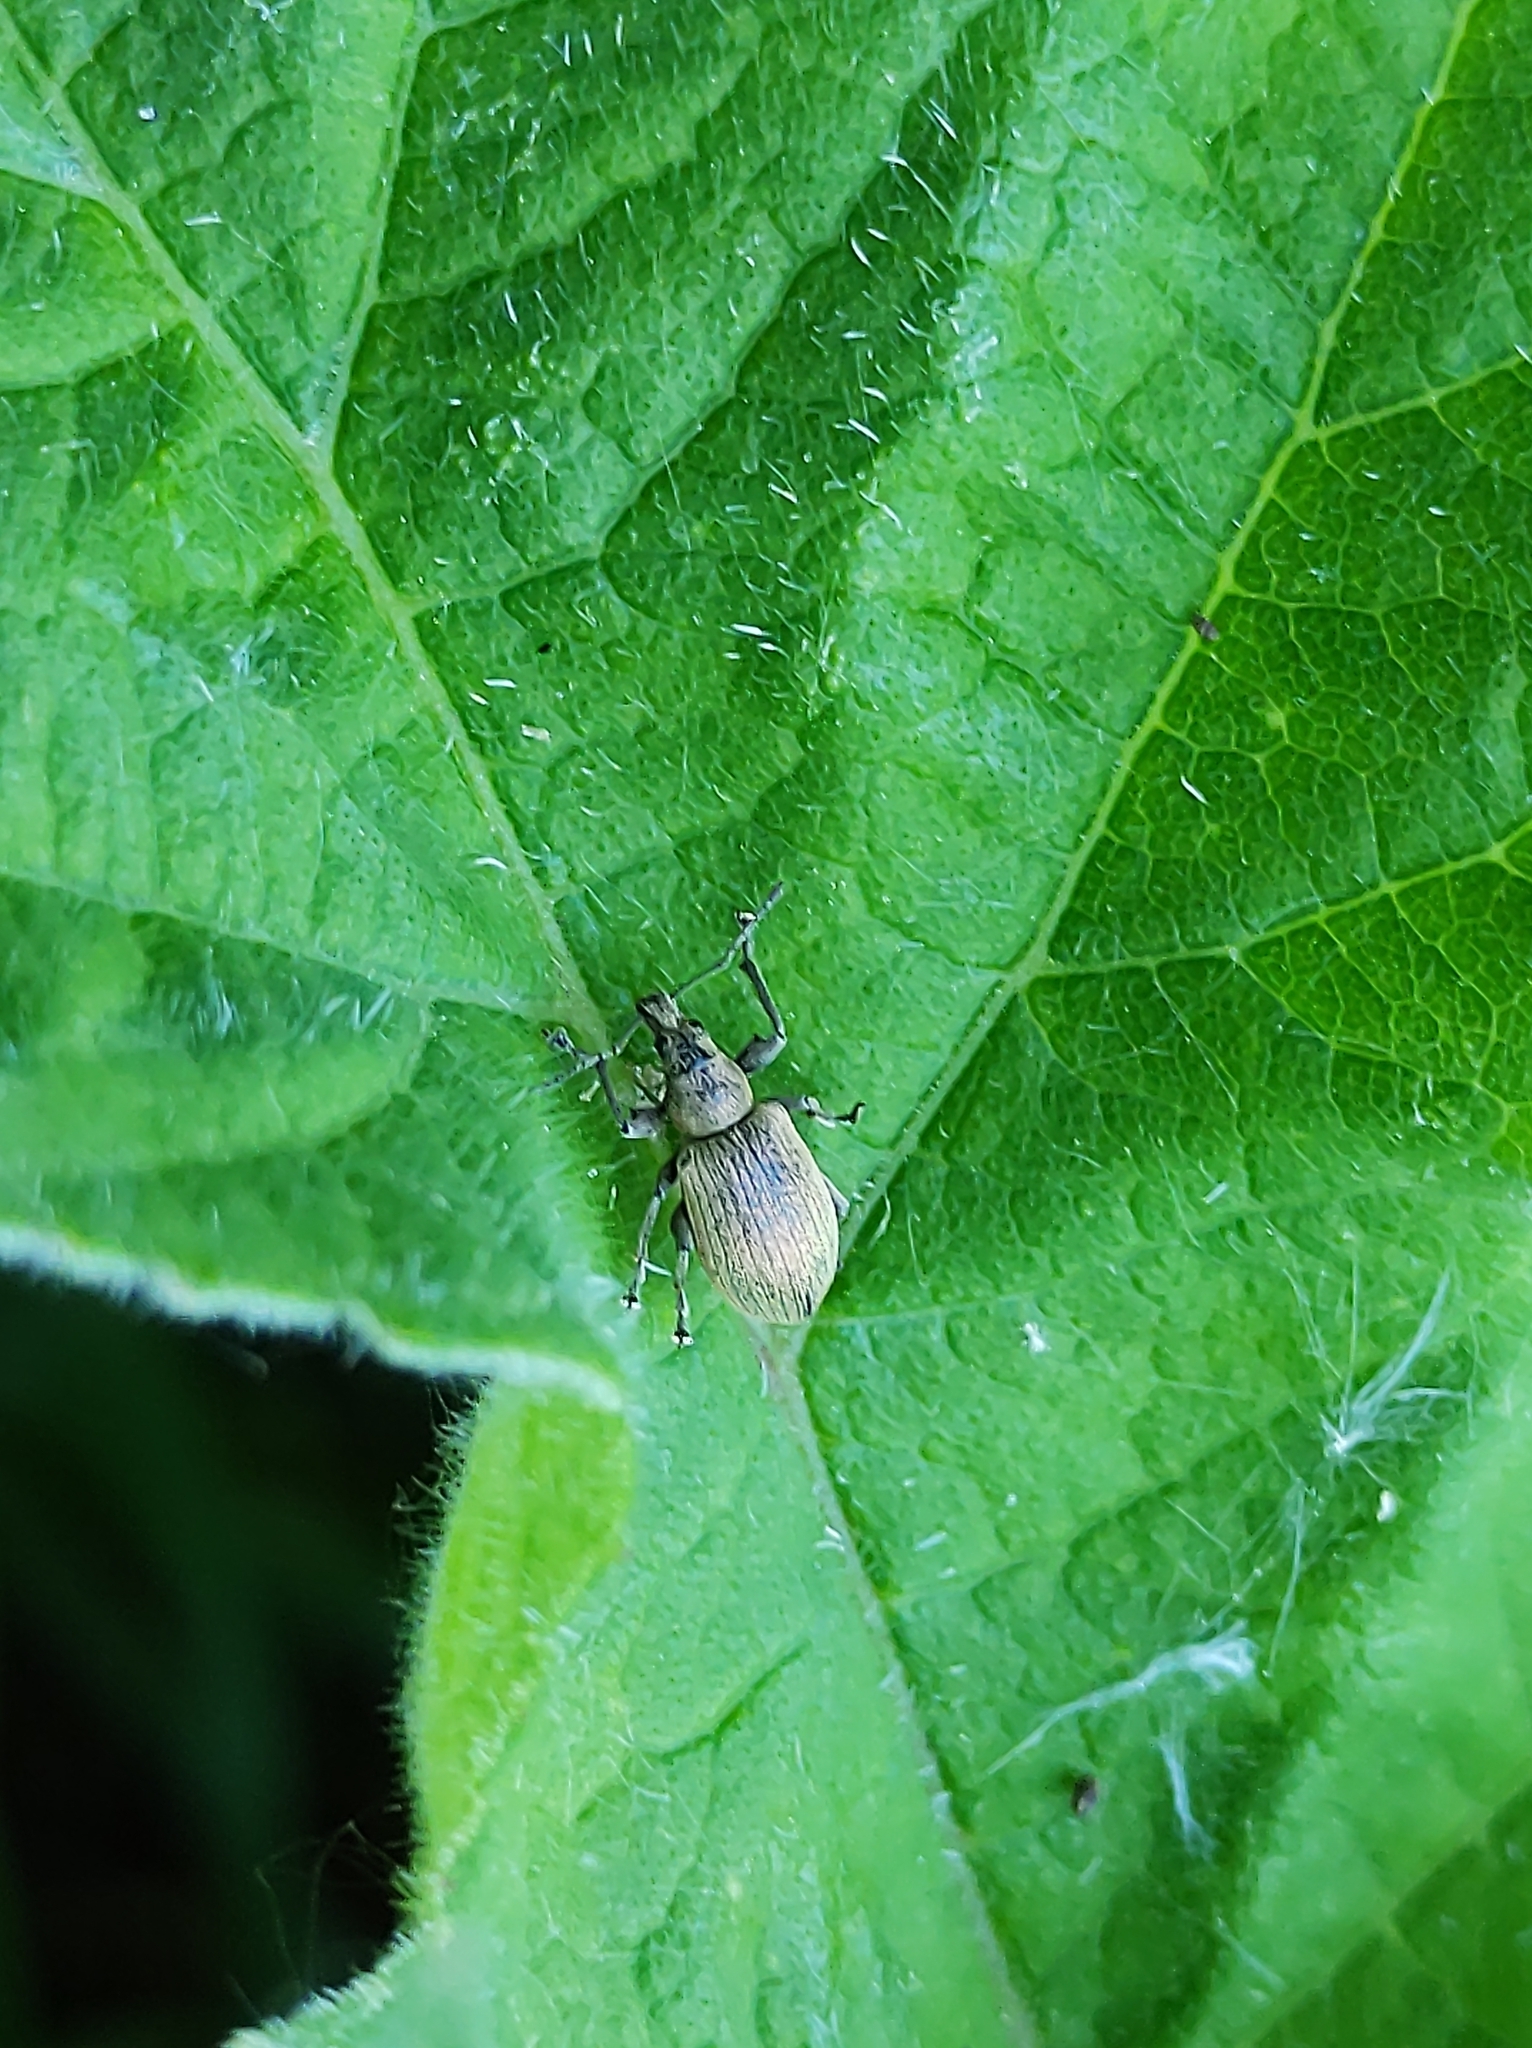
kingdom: Animalia
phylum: Arthropoda
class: Insecta
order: Coleoptera
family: Curculionidae
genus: Phyllobius
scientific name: Phyllobius pomaceus
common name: Green nettle weevil
